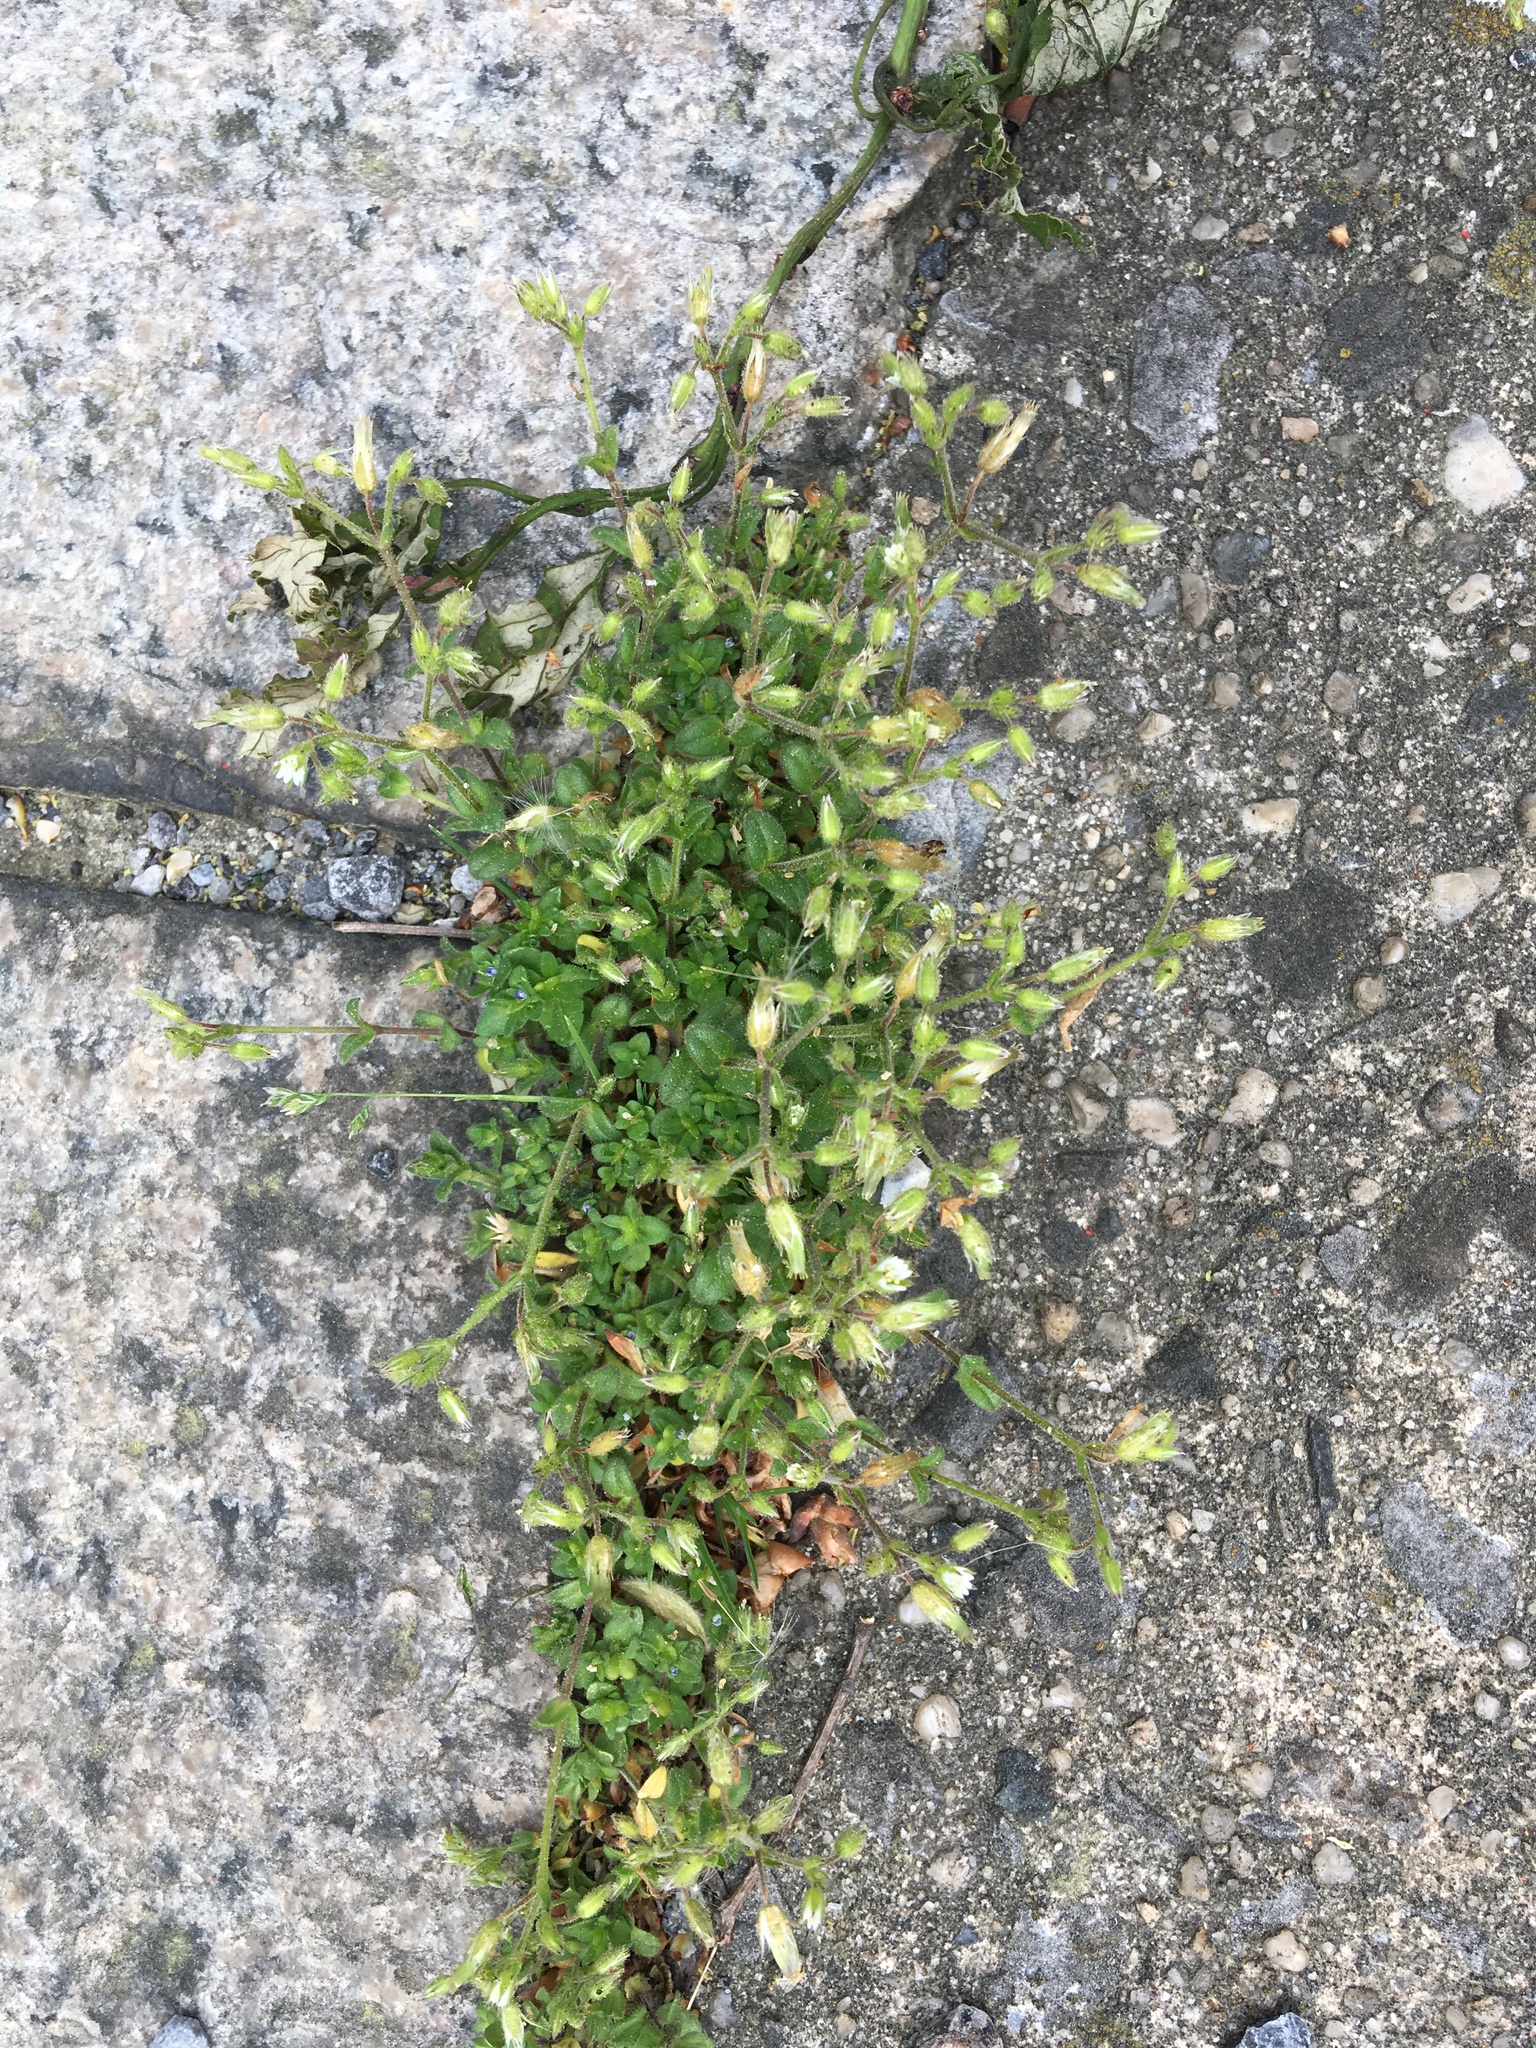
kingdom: Plantae
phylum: Tracheophyta
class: Magnoliopsida
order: Caryophyllales
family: Caryophyllaceae
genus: Cerastium
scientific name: Cerastium fontanum
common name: Common mouse-ear
